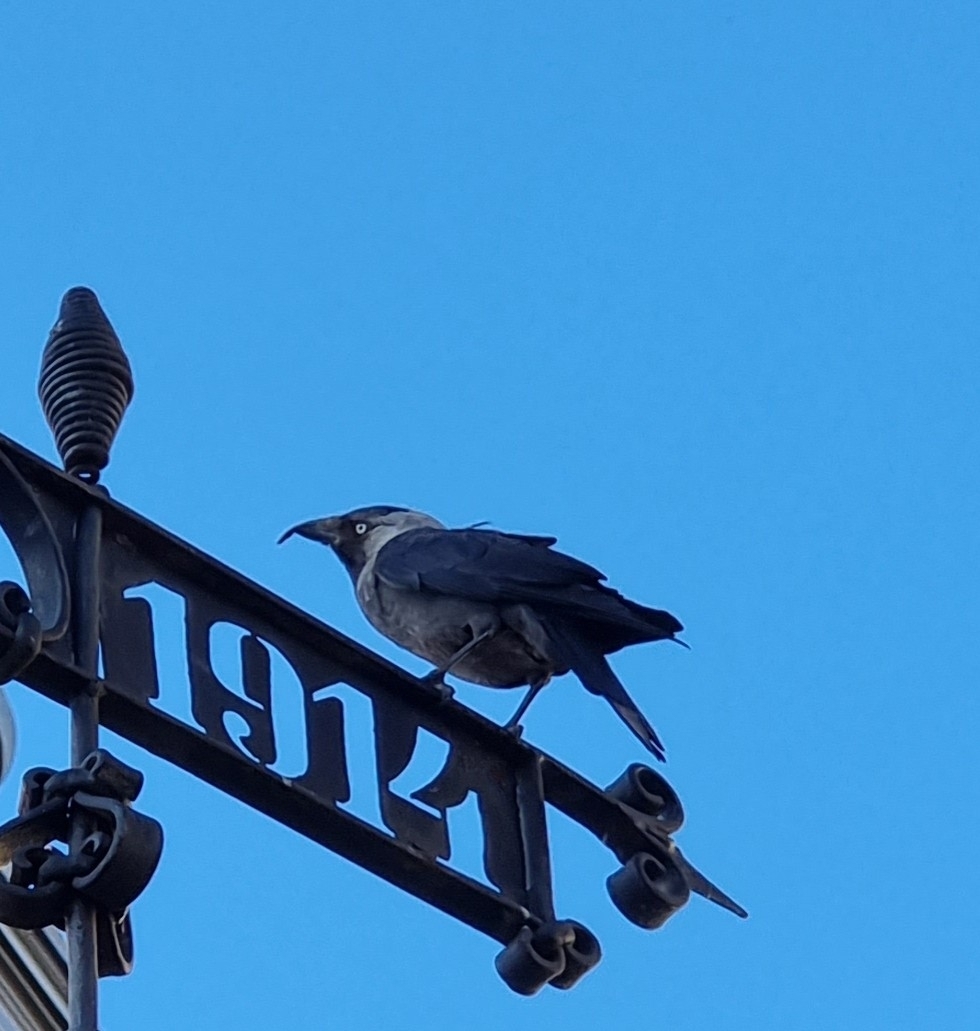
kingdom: Animalia
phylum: Chordata
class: Aves
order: Passeriformes
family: Corvidae
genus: Coloeus
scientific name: Coloeus monedula
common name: Western jackdaw
